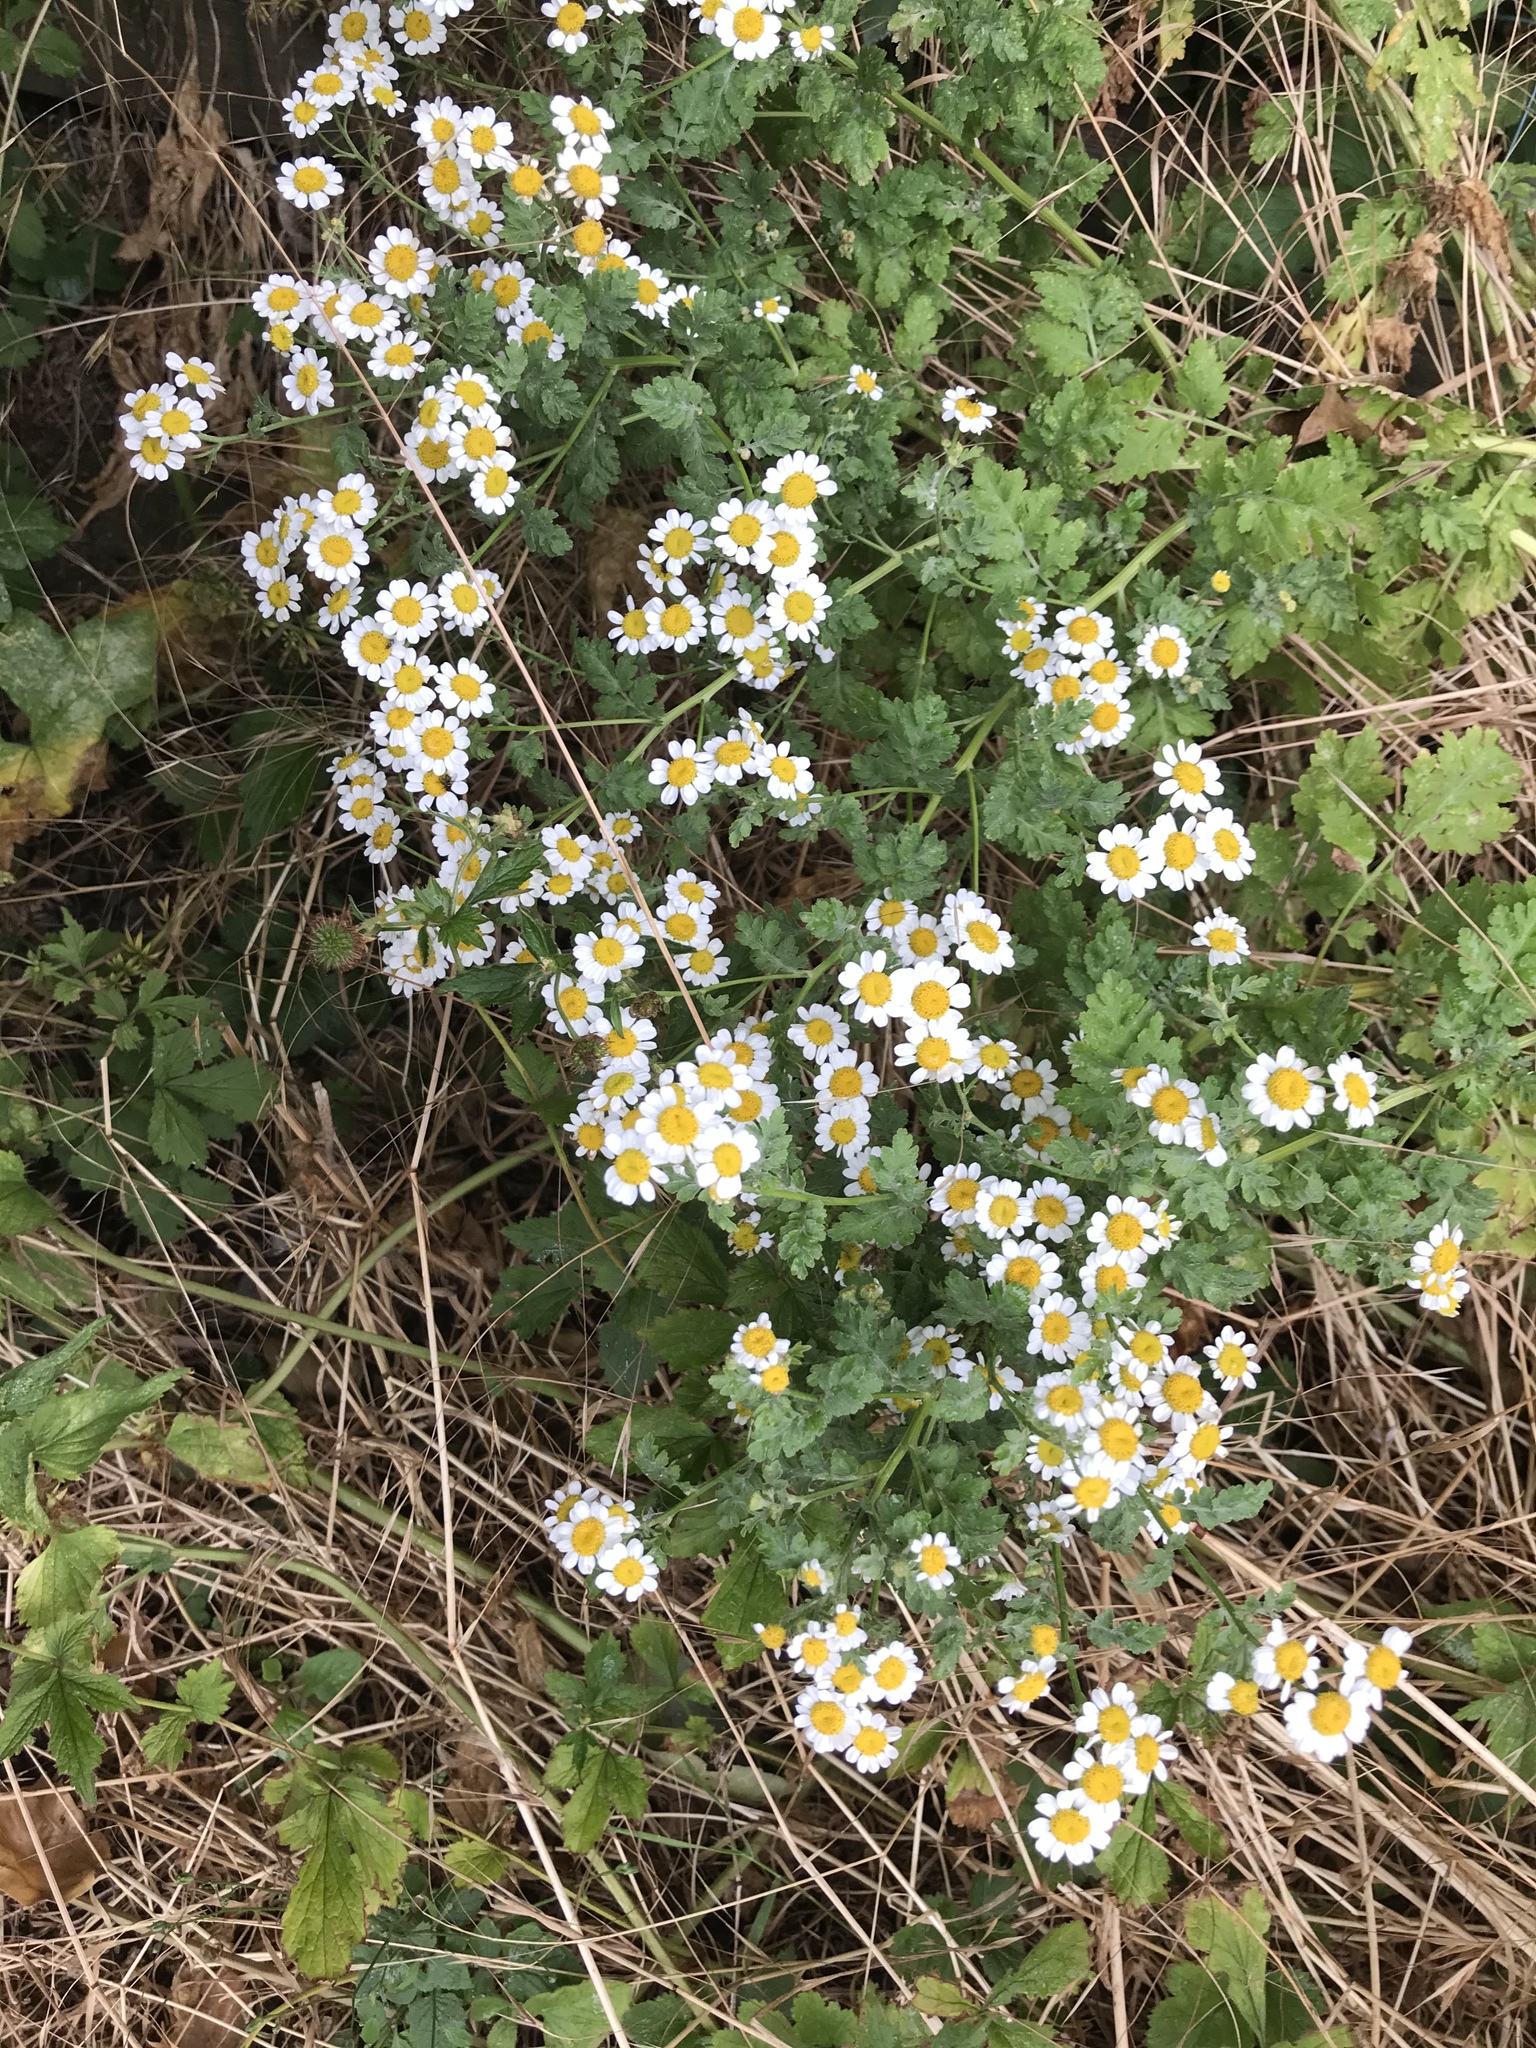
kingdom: Plantae
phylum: Tracheophyta
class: Magnoliopsida
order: Asterales
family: Asteraceae
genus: Tanacetum
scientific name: Tanacetum parthenium
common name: Feverfew
